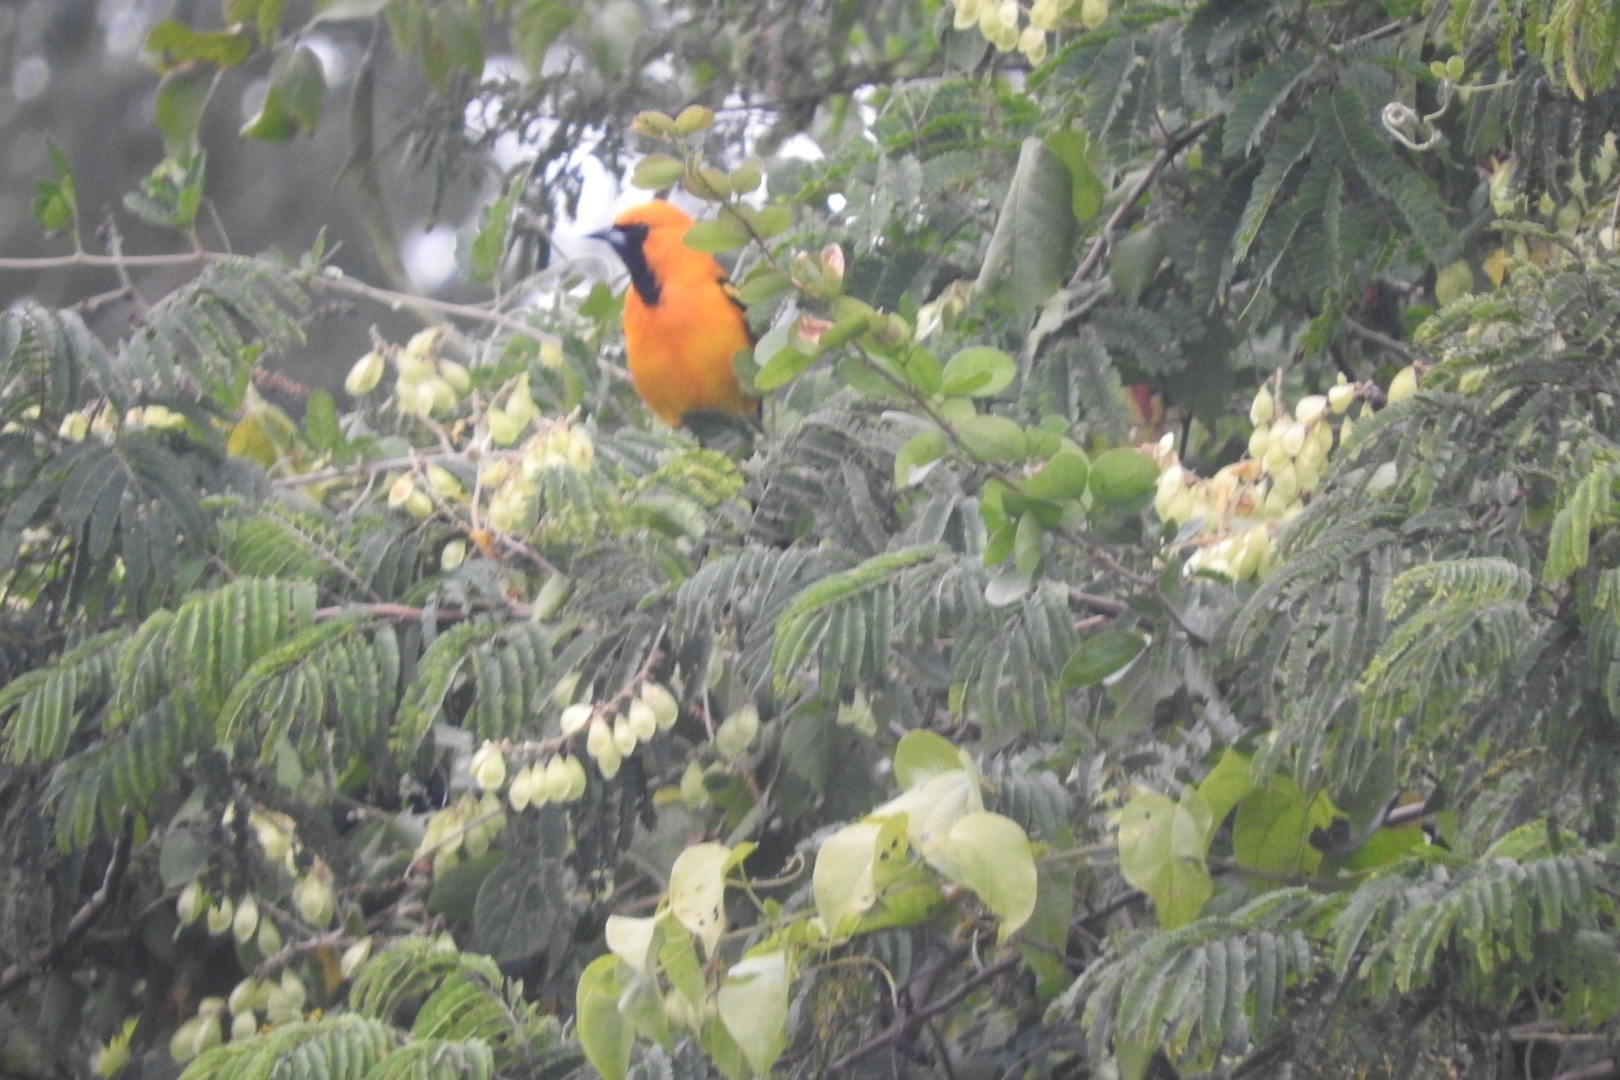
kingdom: Animalia
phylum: Chordata
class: Aves
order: Passeriformes
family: Icteridae
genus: Icterus
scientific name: Icterus auratus
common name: Orange oriole
